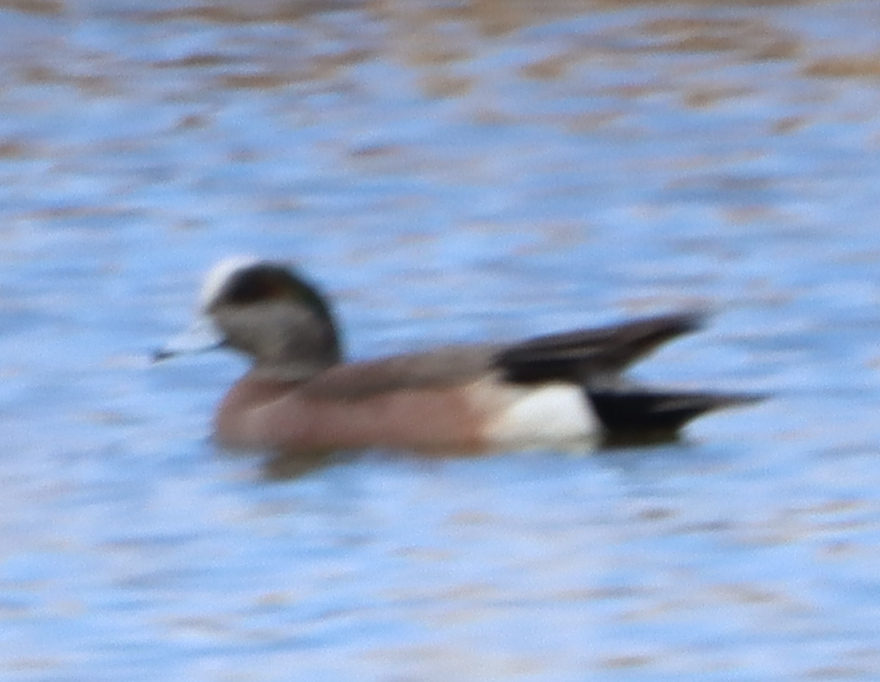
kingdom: Animalia
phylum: Chordata
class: Aves
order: Anseriformes
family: Anatidae
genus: Mareca
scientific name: Mareca americana
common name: American wigeon
